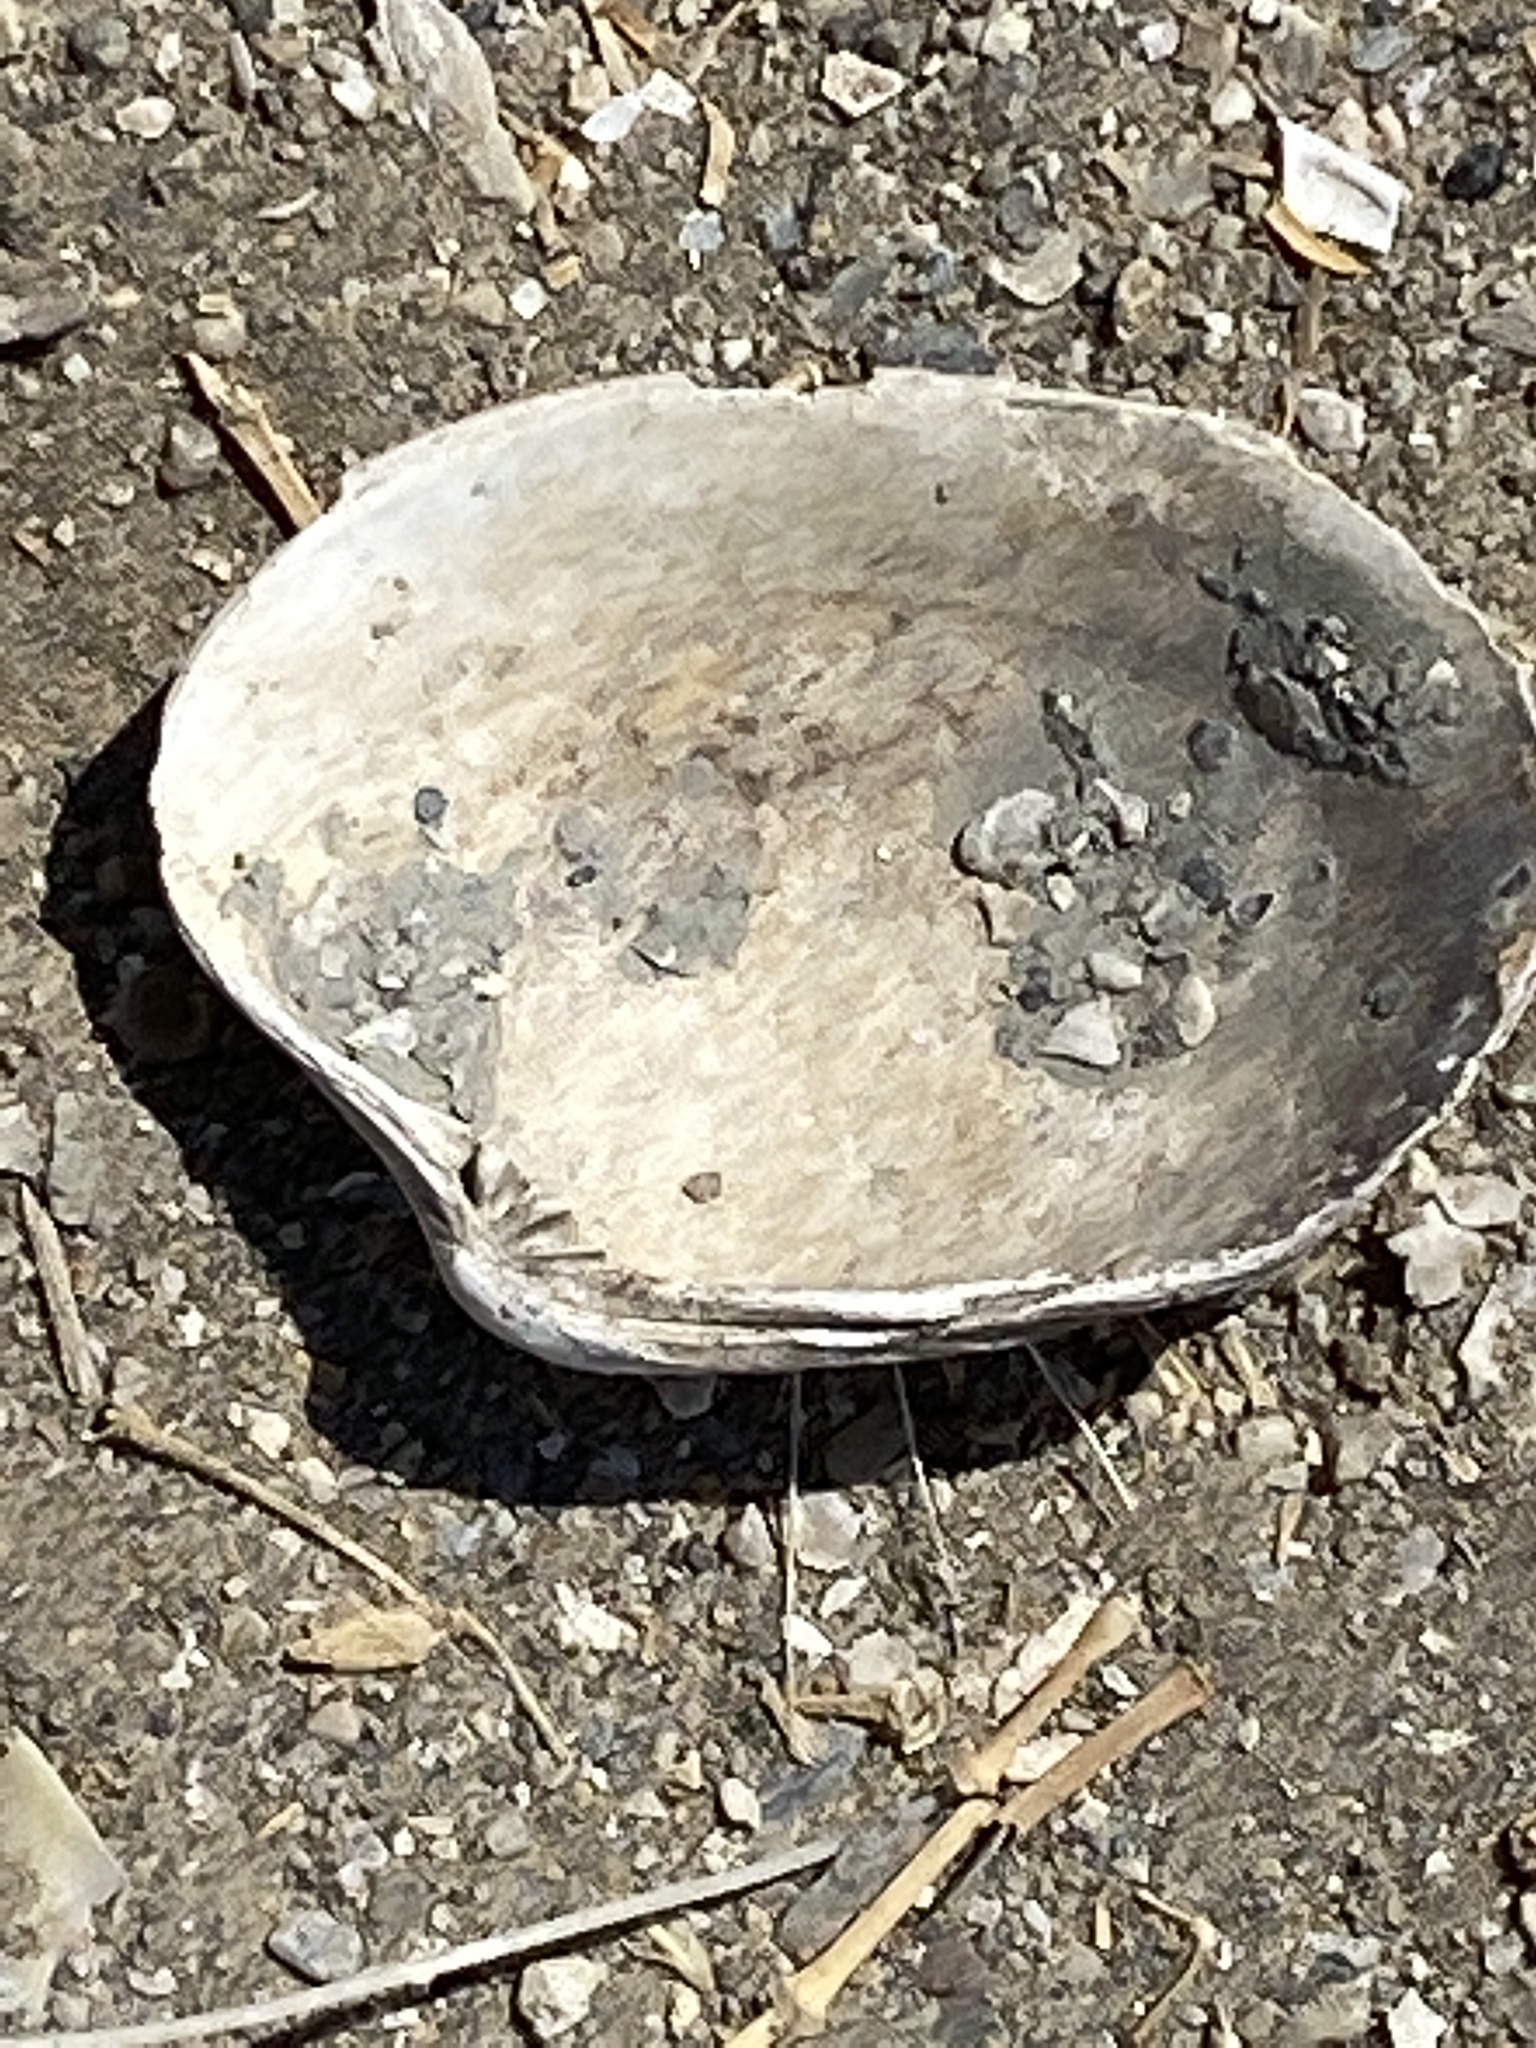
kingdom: Animalia
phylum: Mollusca
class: Bivalvia
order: Venerida
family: Veneridae
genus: Ruditapes
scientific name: Ruditapes philippinarum
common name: Manila clam
